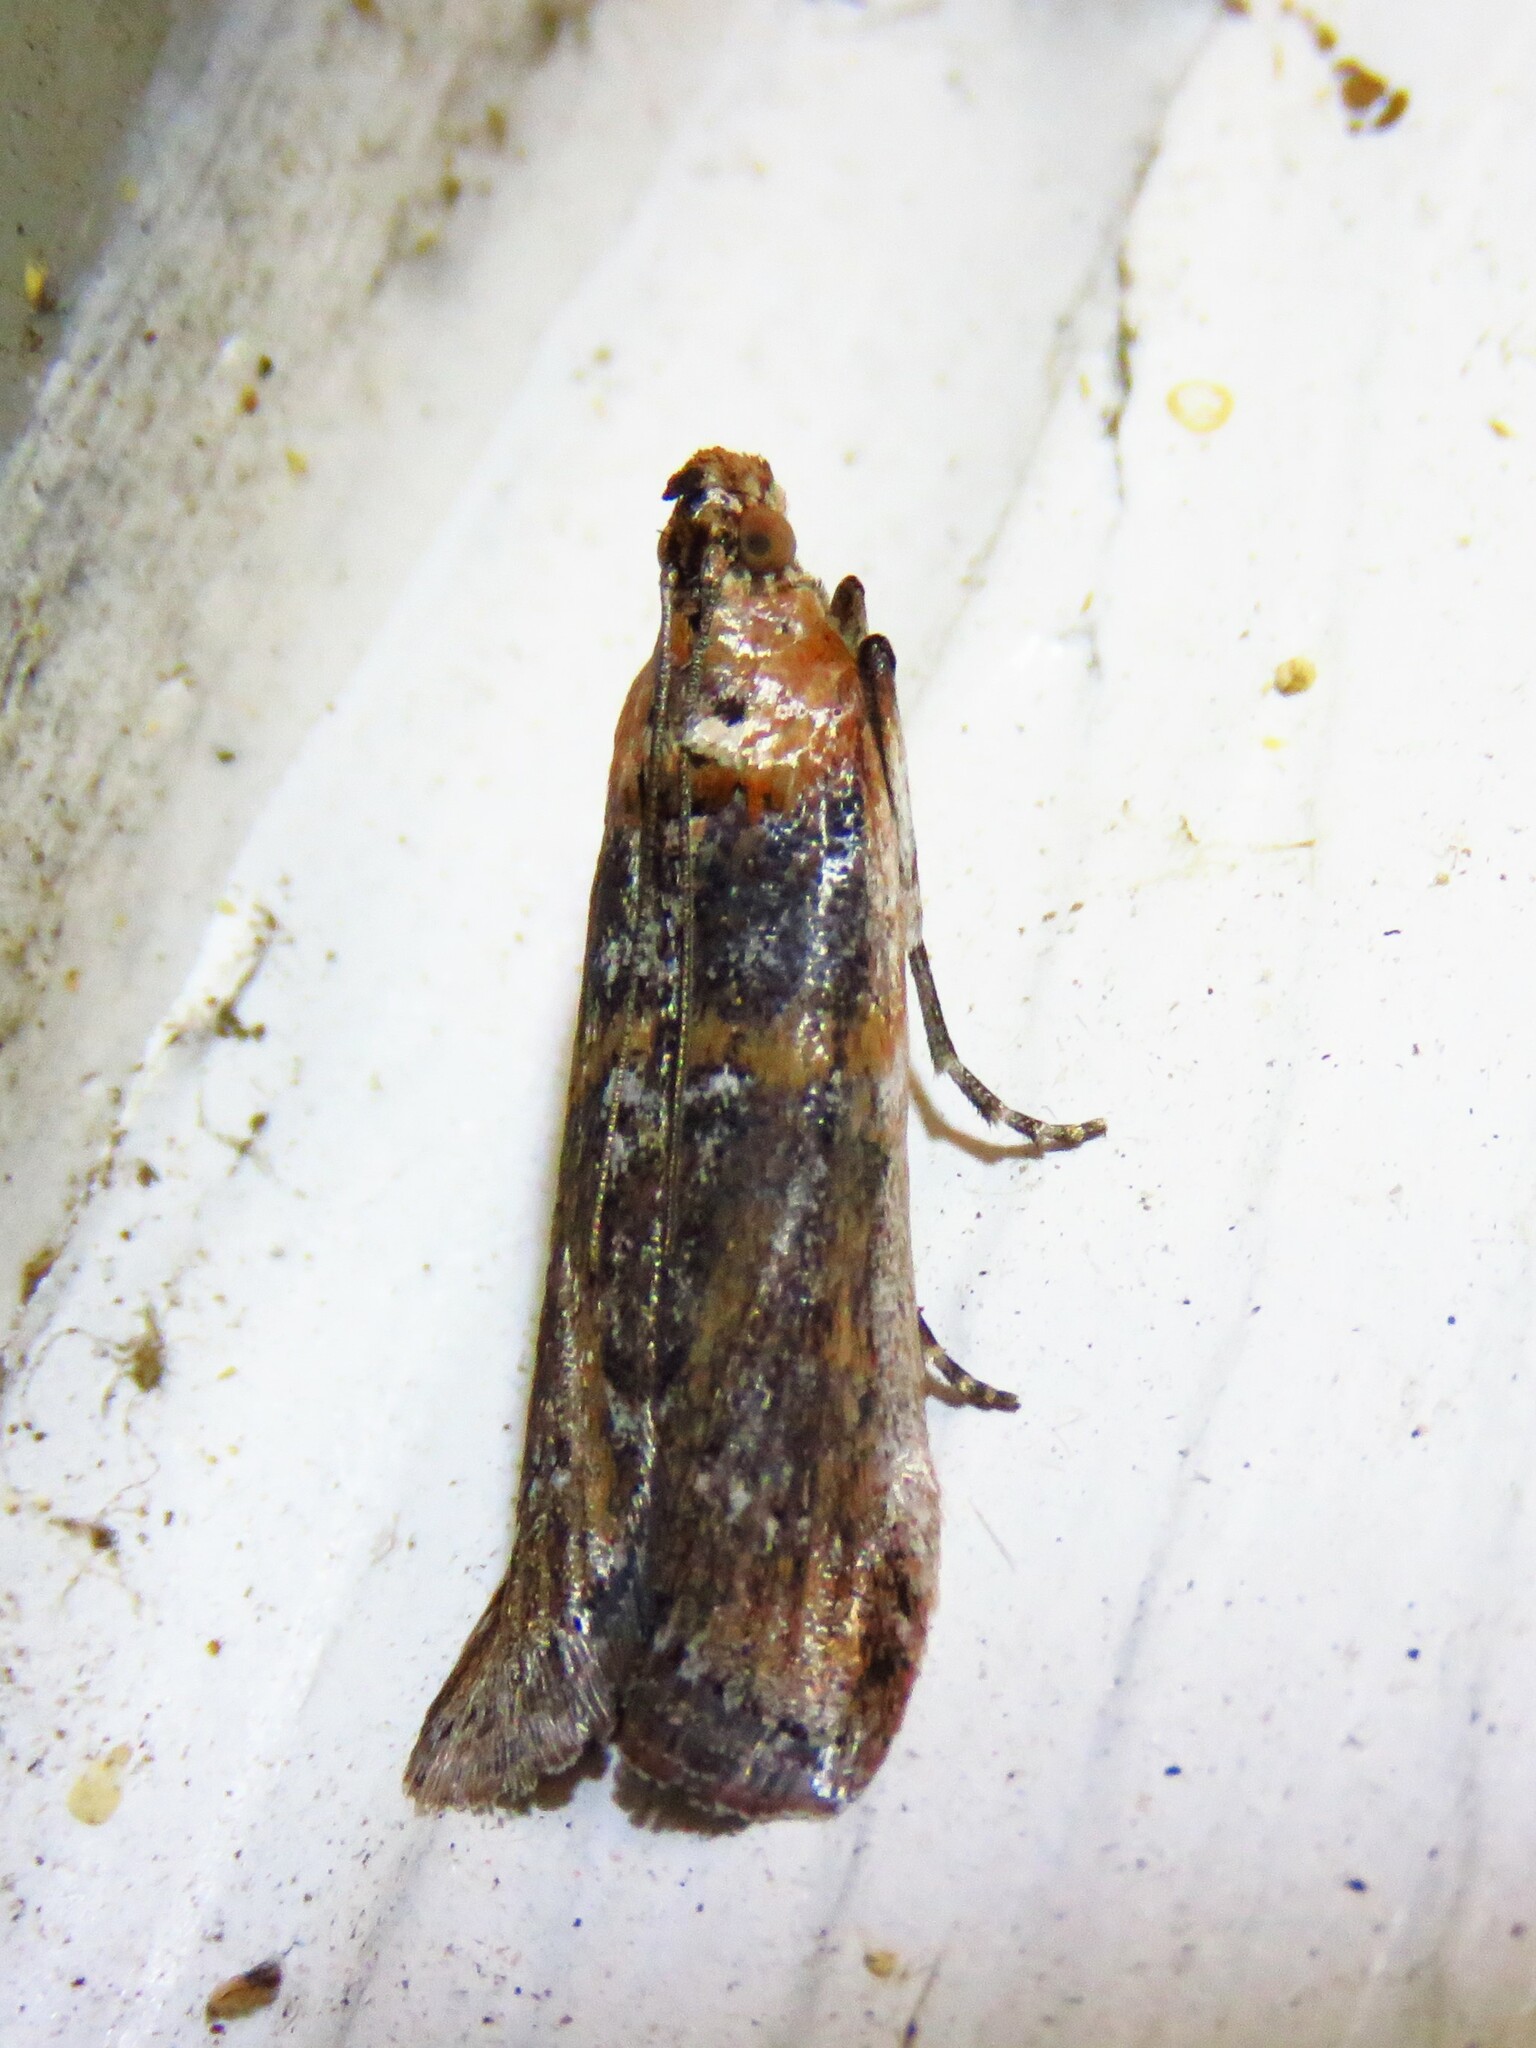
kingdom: Animalia
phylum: Arthropoda
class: Insecta
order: Lepidoptera
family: Pyralidae
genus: Adelphia
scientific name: Adelphia petrella
